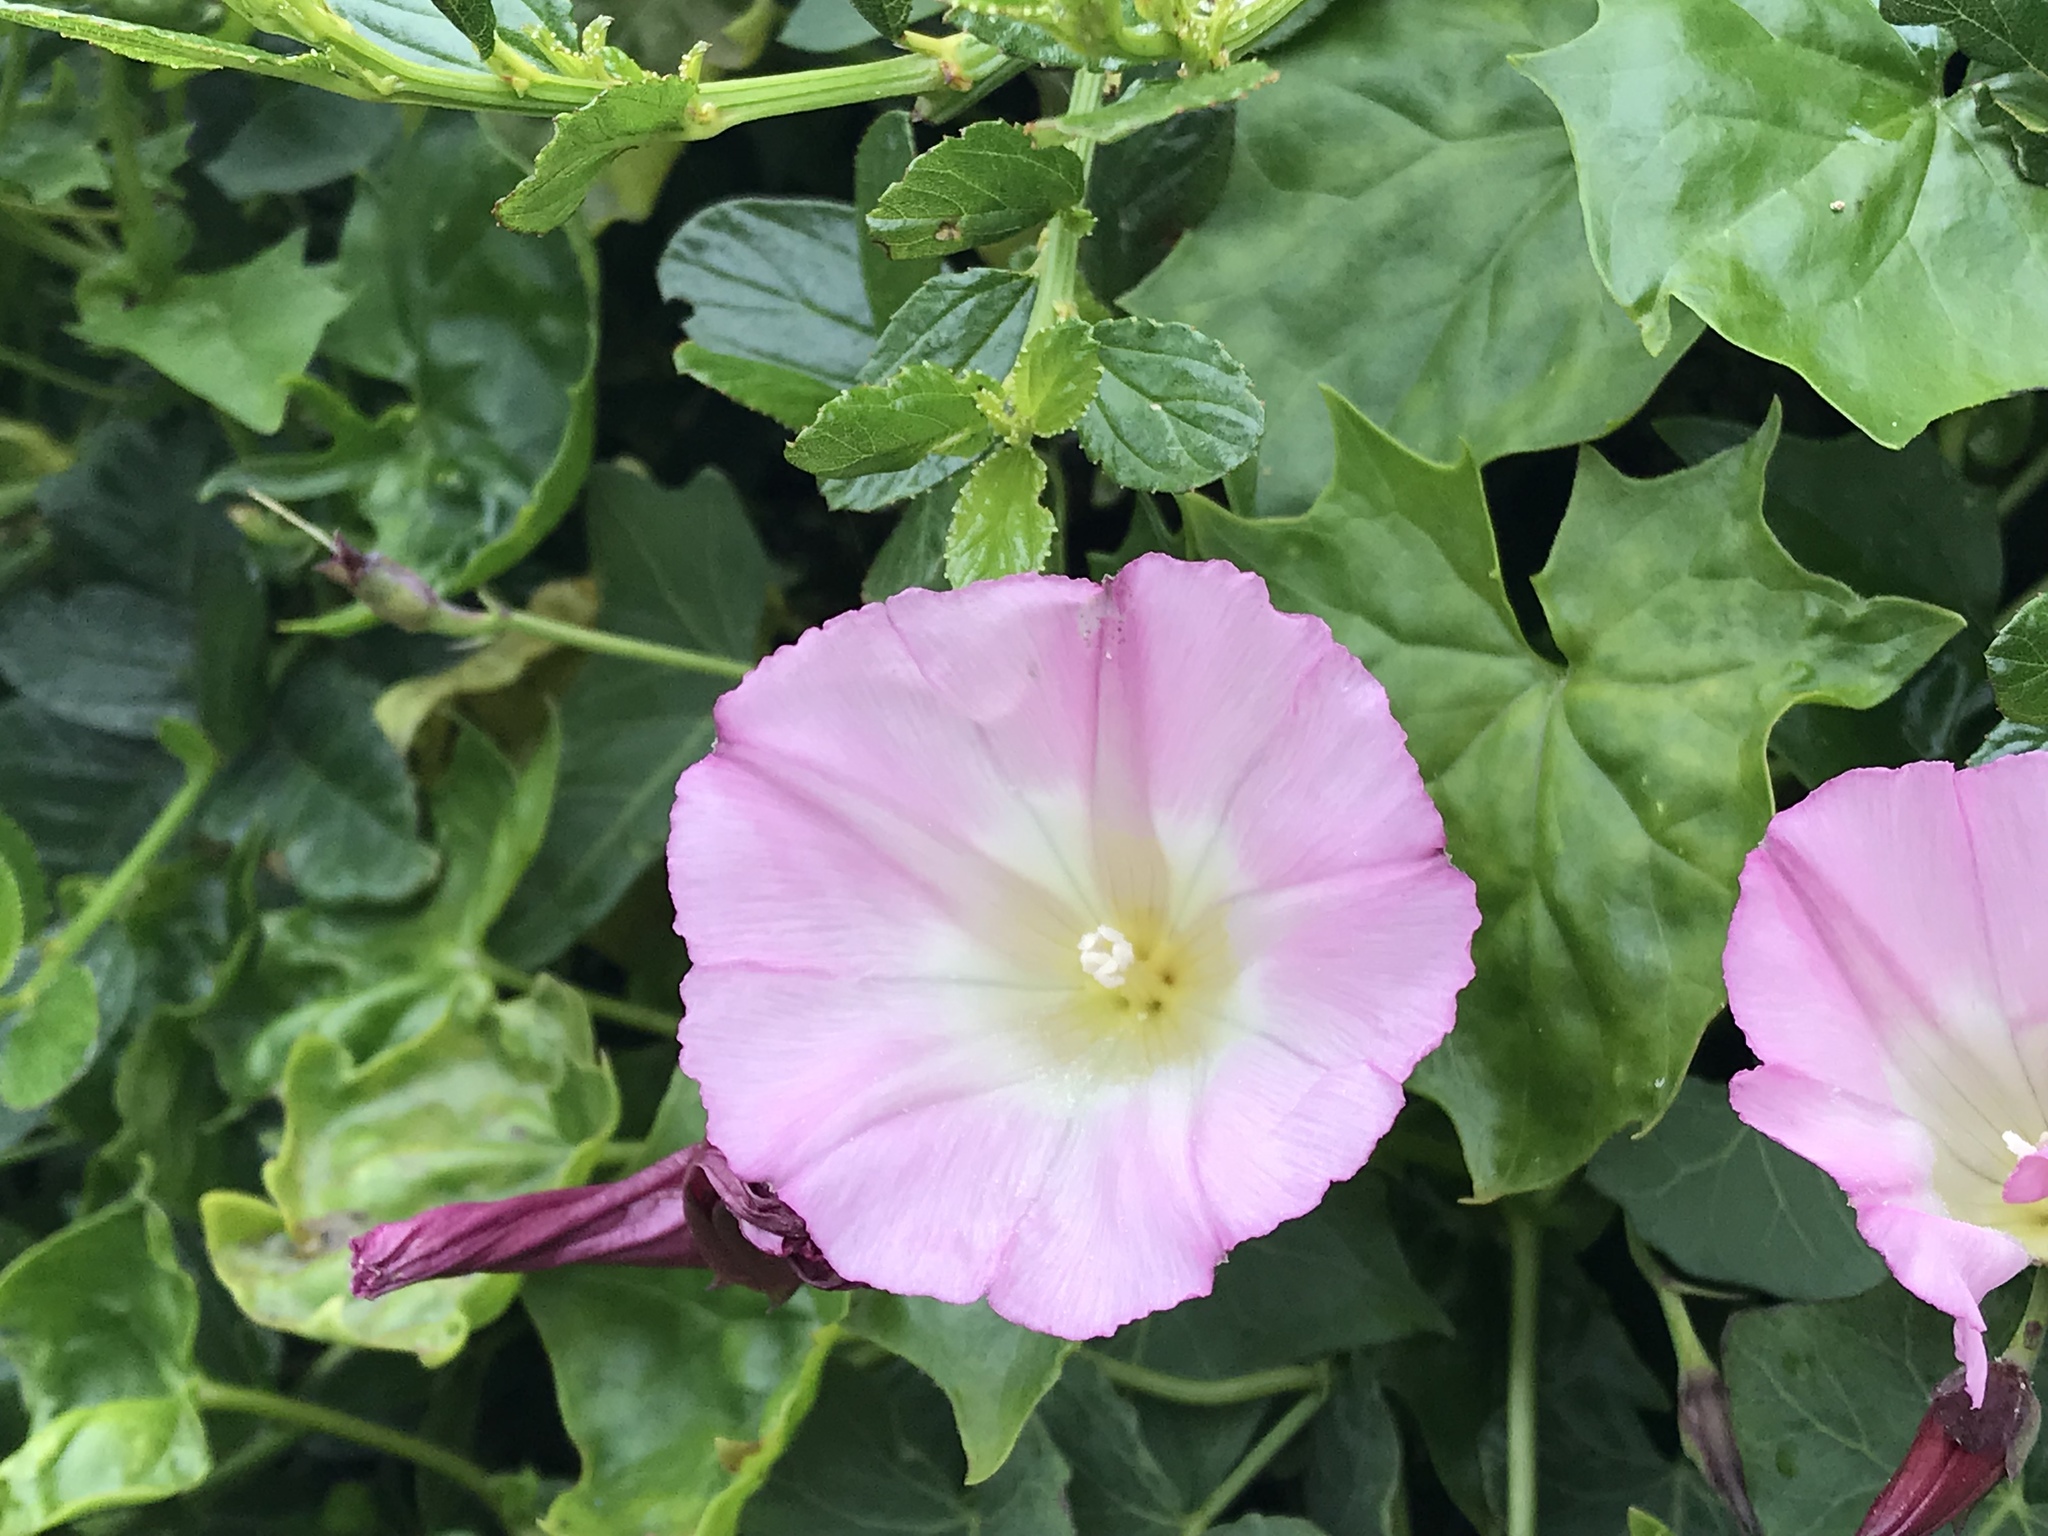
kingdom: Plantae
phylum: Tracheophyta
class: Magnoliopsida
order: Solanales
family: Convolvulaceae
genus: Calystegia
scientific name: Calystegia purpurata
